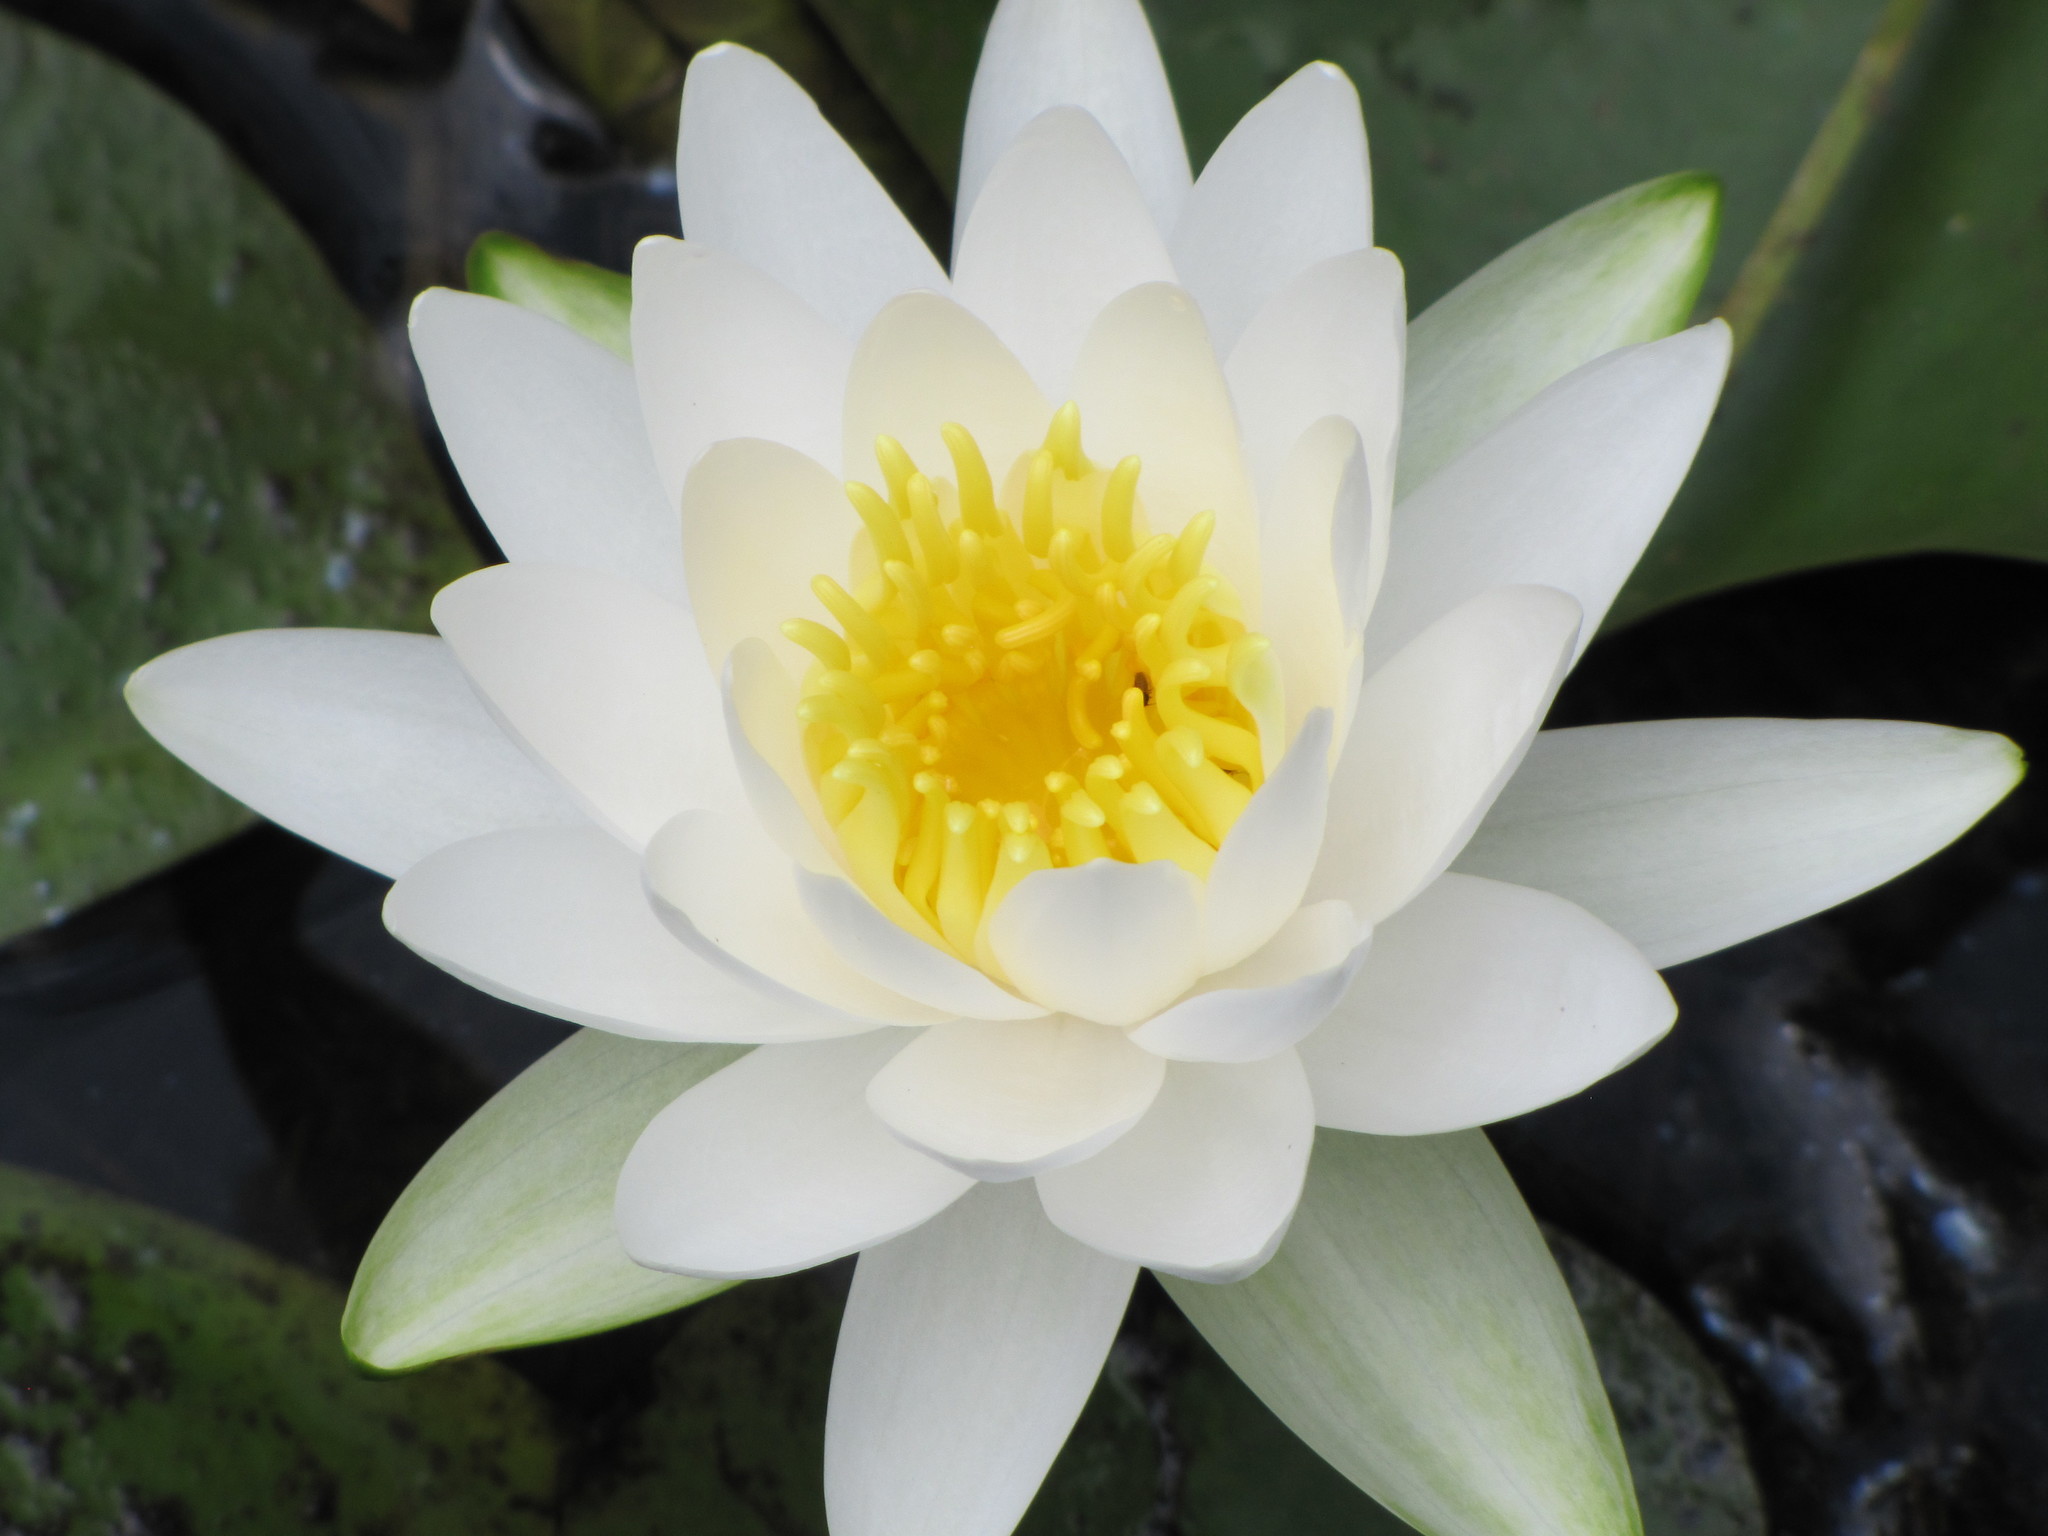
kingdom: Plantae
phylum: Tracheophyta
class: Magnoliopsida
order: Nymphaeales
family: Nymphaeaceae
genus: Nymphaea
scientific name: Nymphaea odorata
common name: Fragrant water-lily
